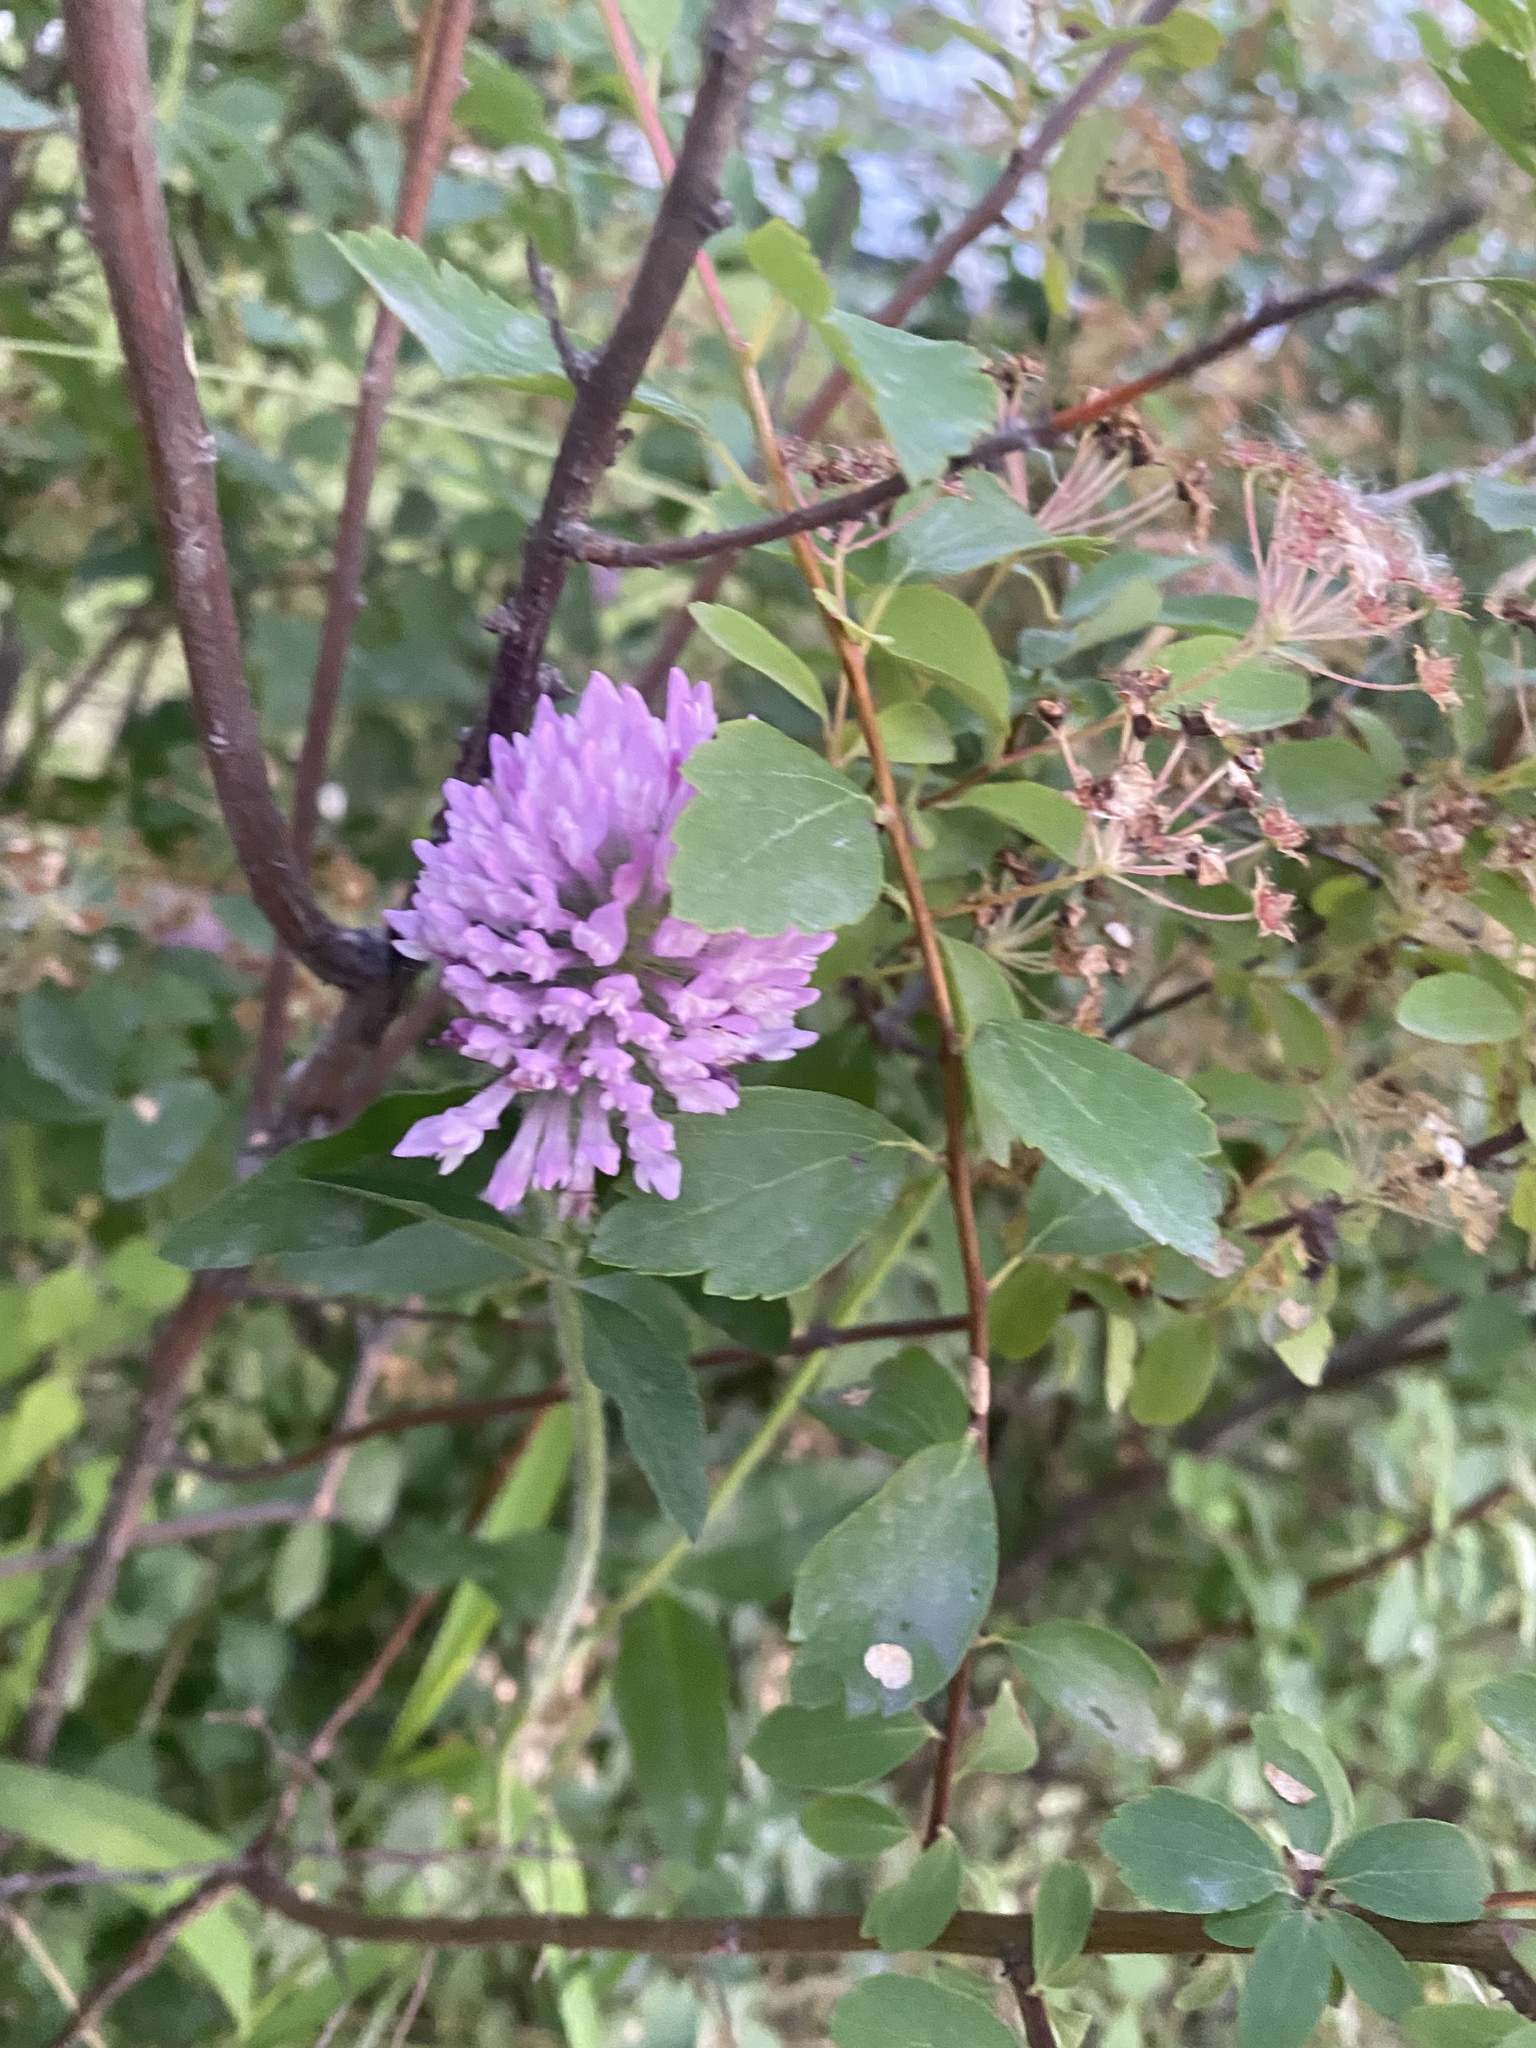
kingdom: Plantae
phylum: Tracheophyta
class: Magnoliopsida
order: Fabales
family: Fabaceae
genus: Trifolium
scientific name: Trifolium pratense
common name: Red clover
